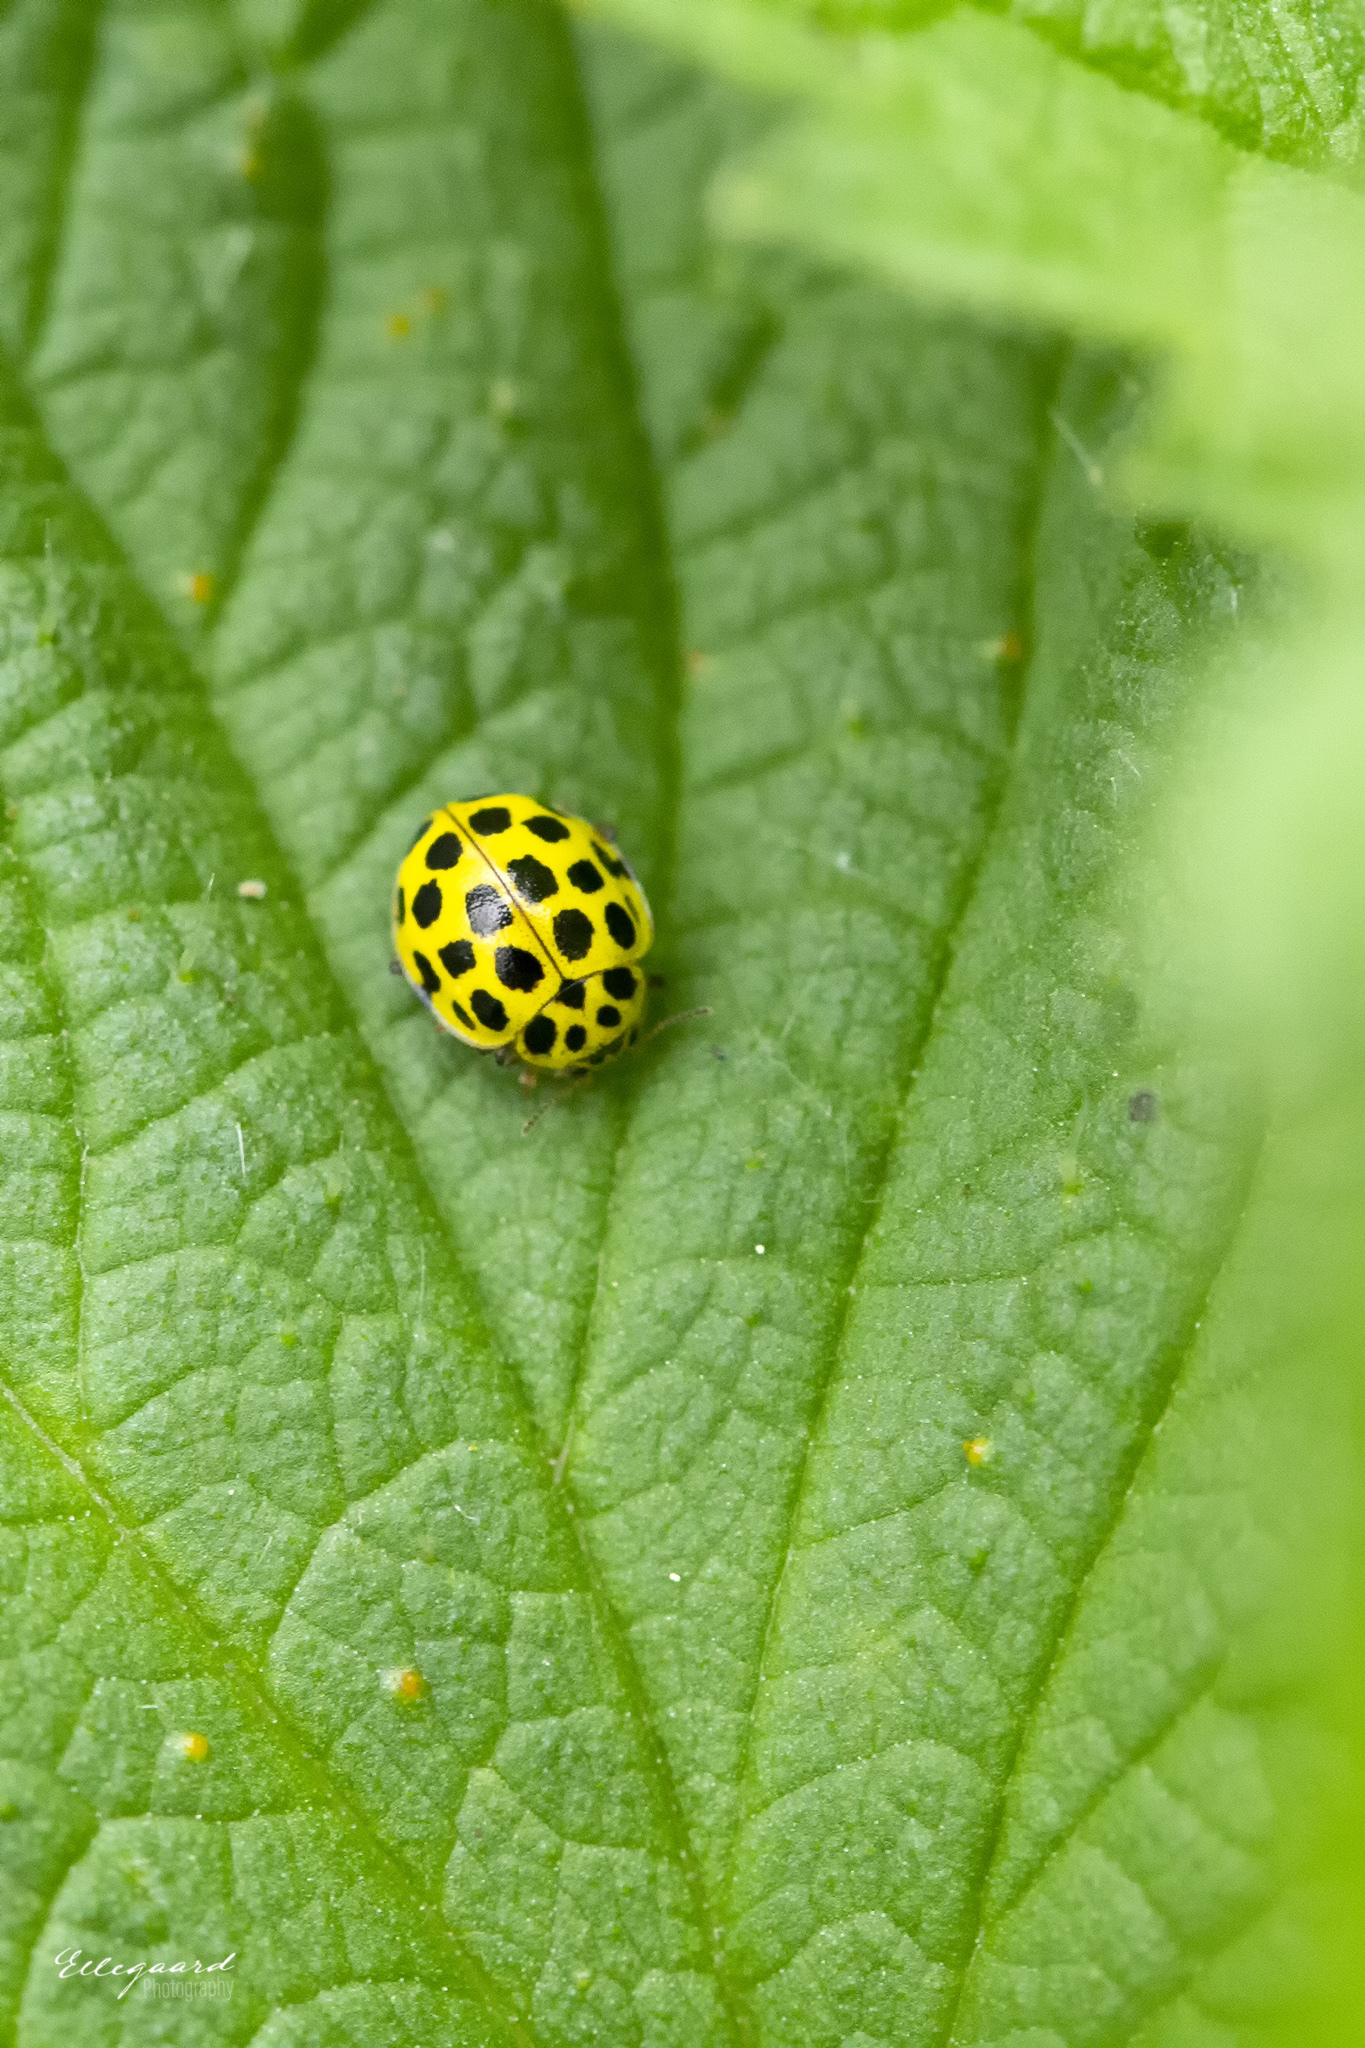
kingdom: Animalia
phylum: Arthropoda
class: Insecta
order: Coleoptera
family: Coccinellidae
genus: Psyllobora
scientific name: Psyllobora vigintiduopunctata
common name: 22-spot ladybird
